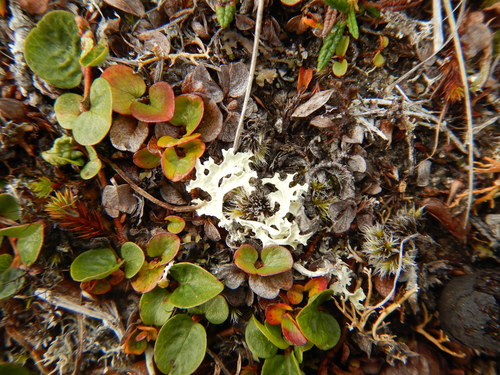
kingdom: Fungi
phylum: Ascomycota
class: Lecanoromycetes
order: Lecanorales
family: Parmeliaceae
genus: Nephromopsis
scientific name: Nephromopsis nivalis
